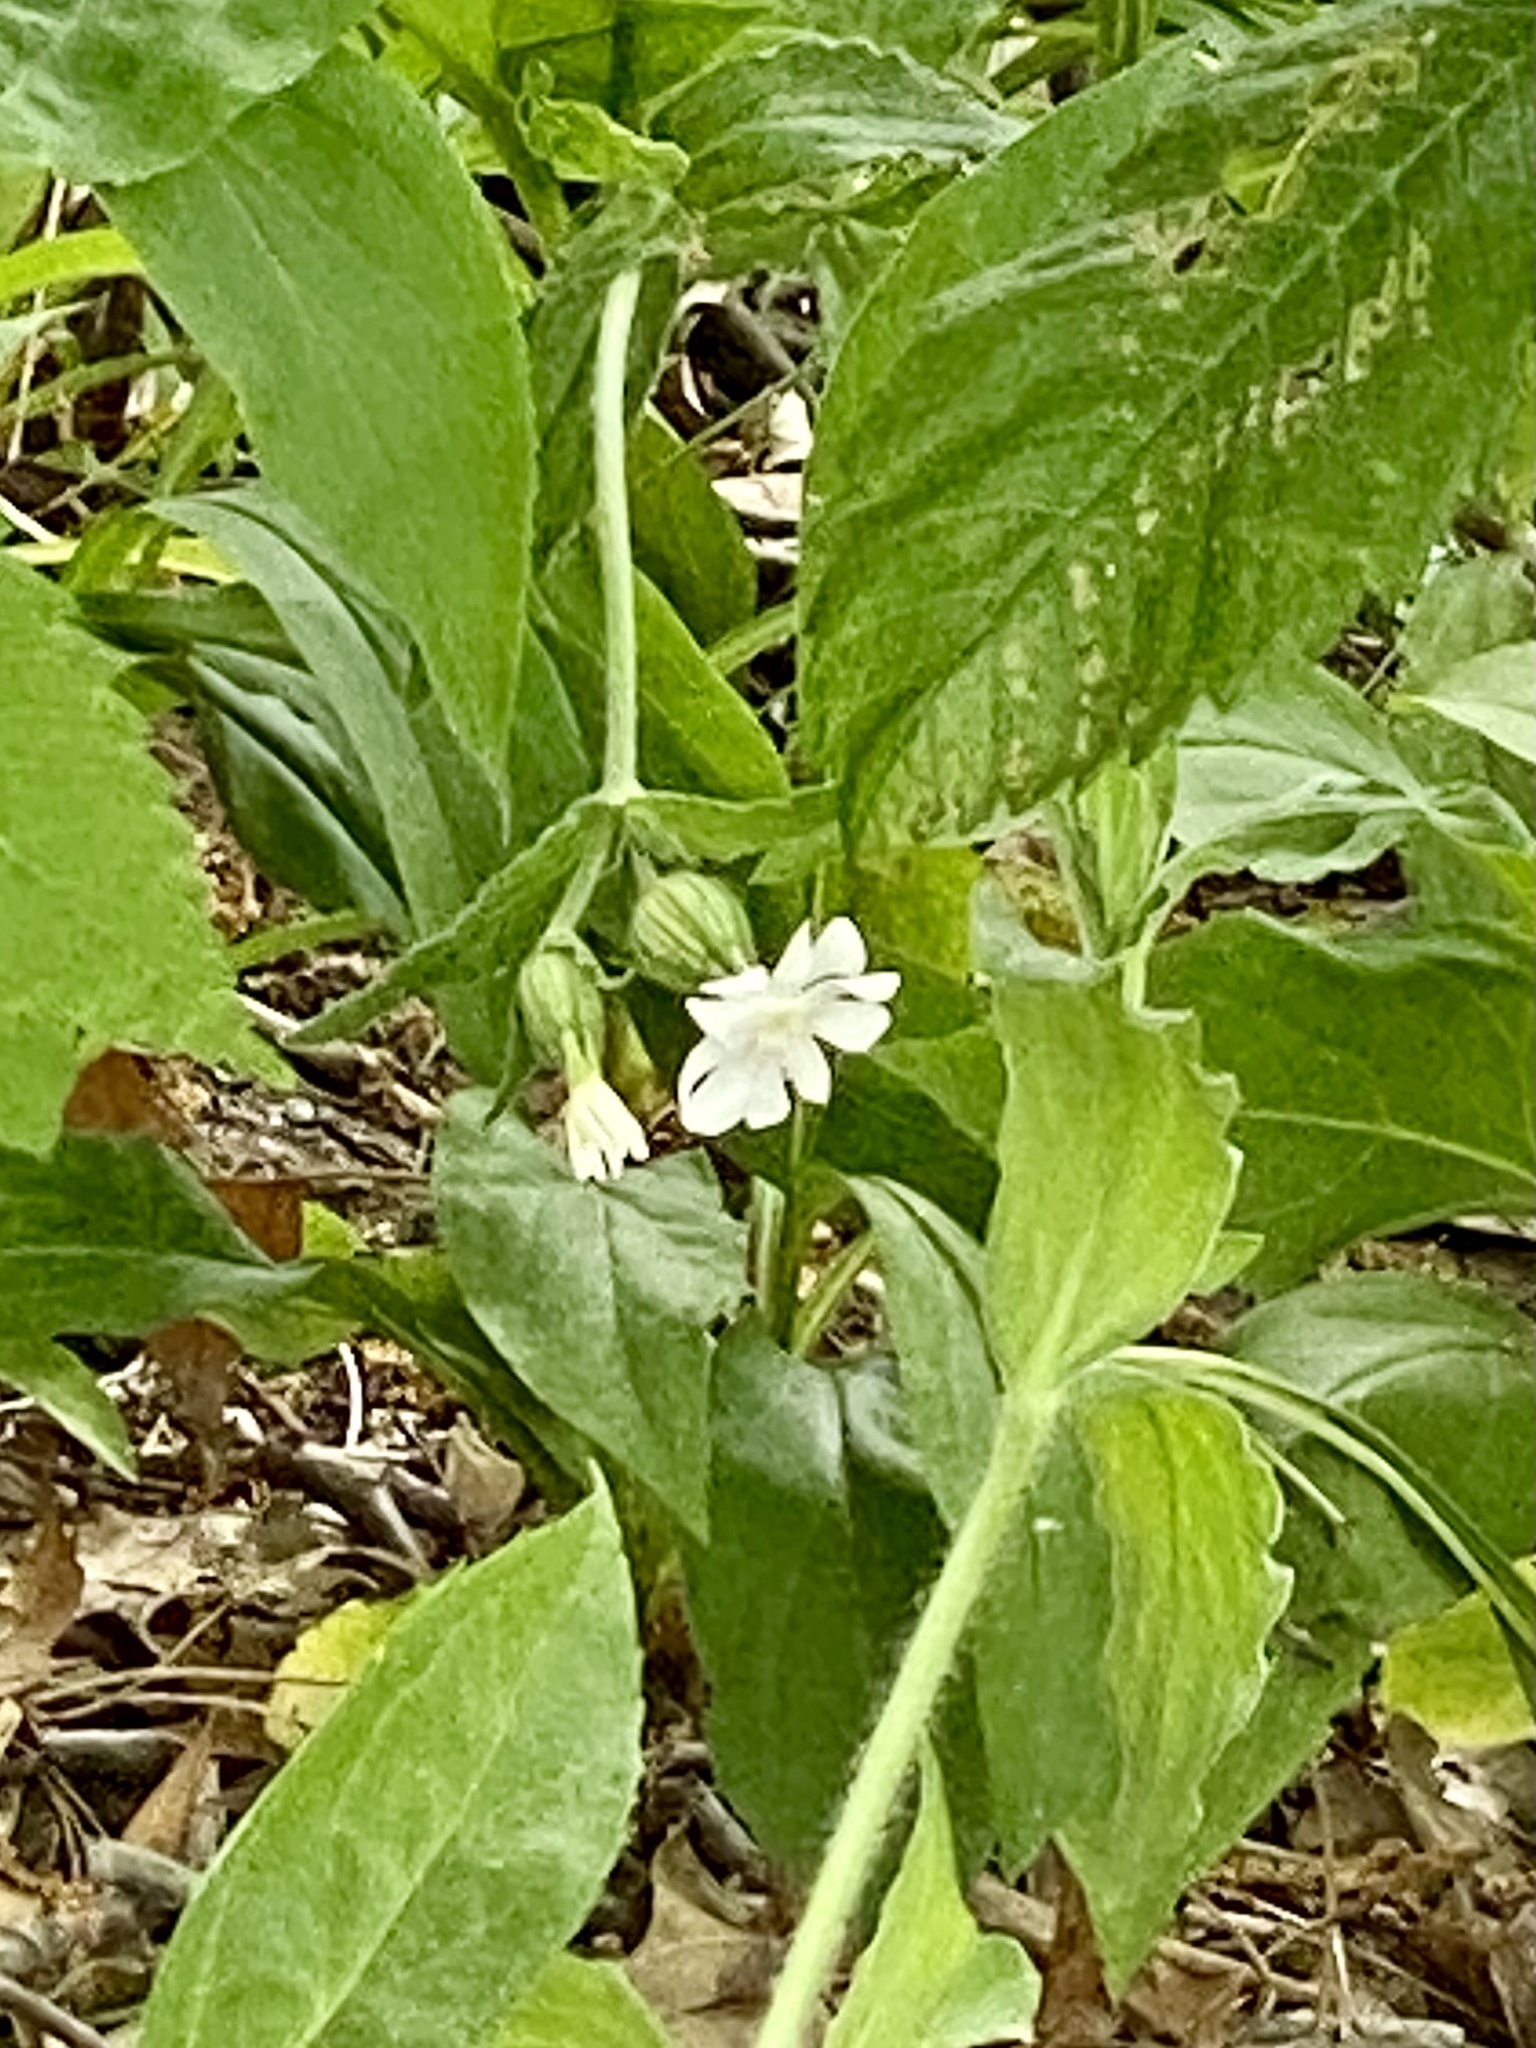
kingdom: Plantae
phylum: Tracheophyta
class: Magnoliopsida
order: Caryophyllales
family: Caryophyllaceae
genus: Silene
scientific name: Silene latifolia
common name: White campion
